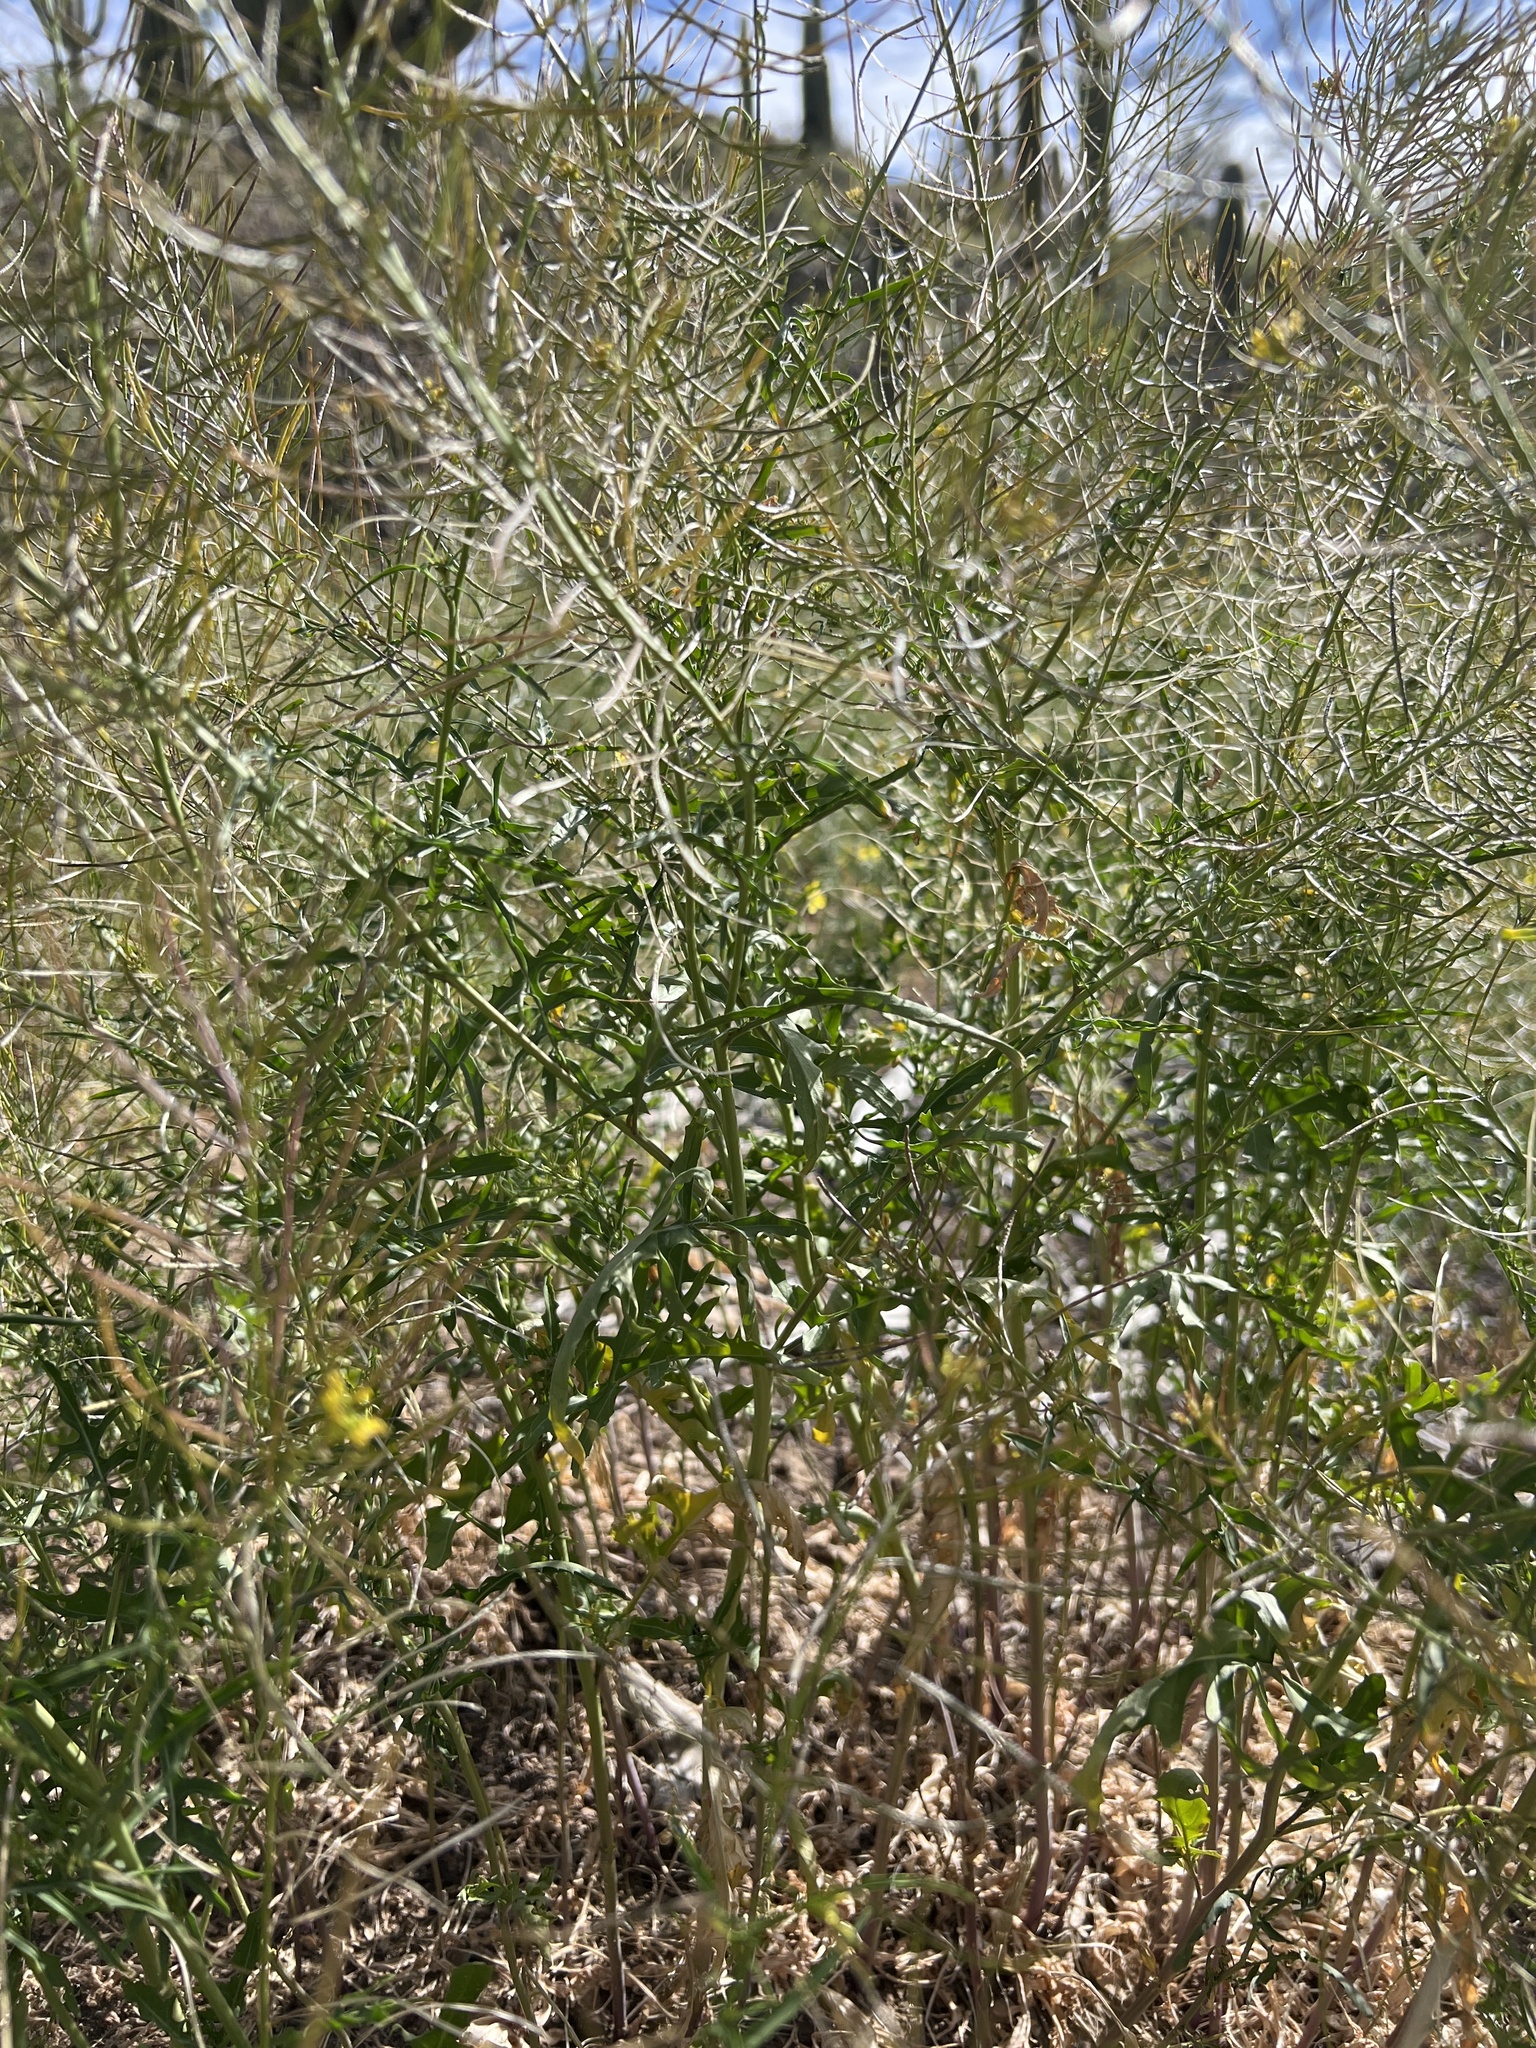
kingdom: Plantae
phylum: Tracheophyta
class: Magnoliopsida
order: Brassicales
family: Brassicaceae
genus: Sisymbrium
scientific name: Sisymbrium irio
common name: London rocket
